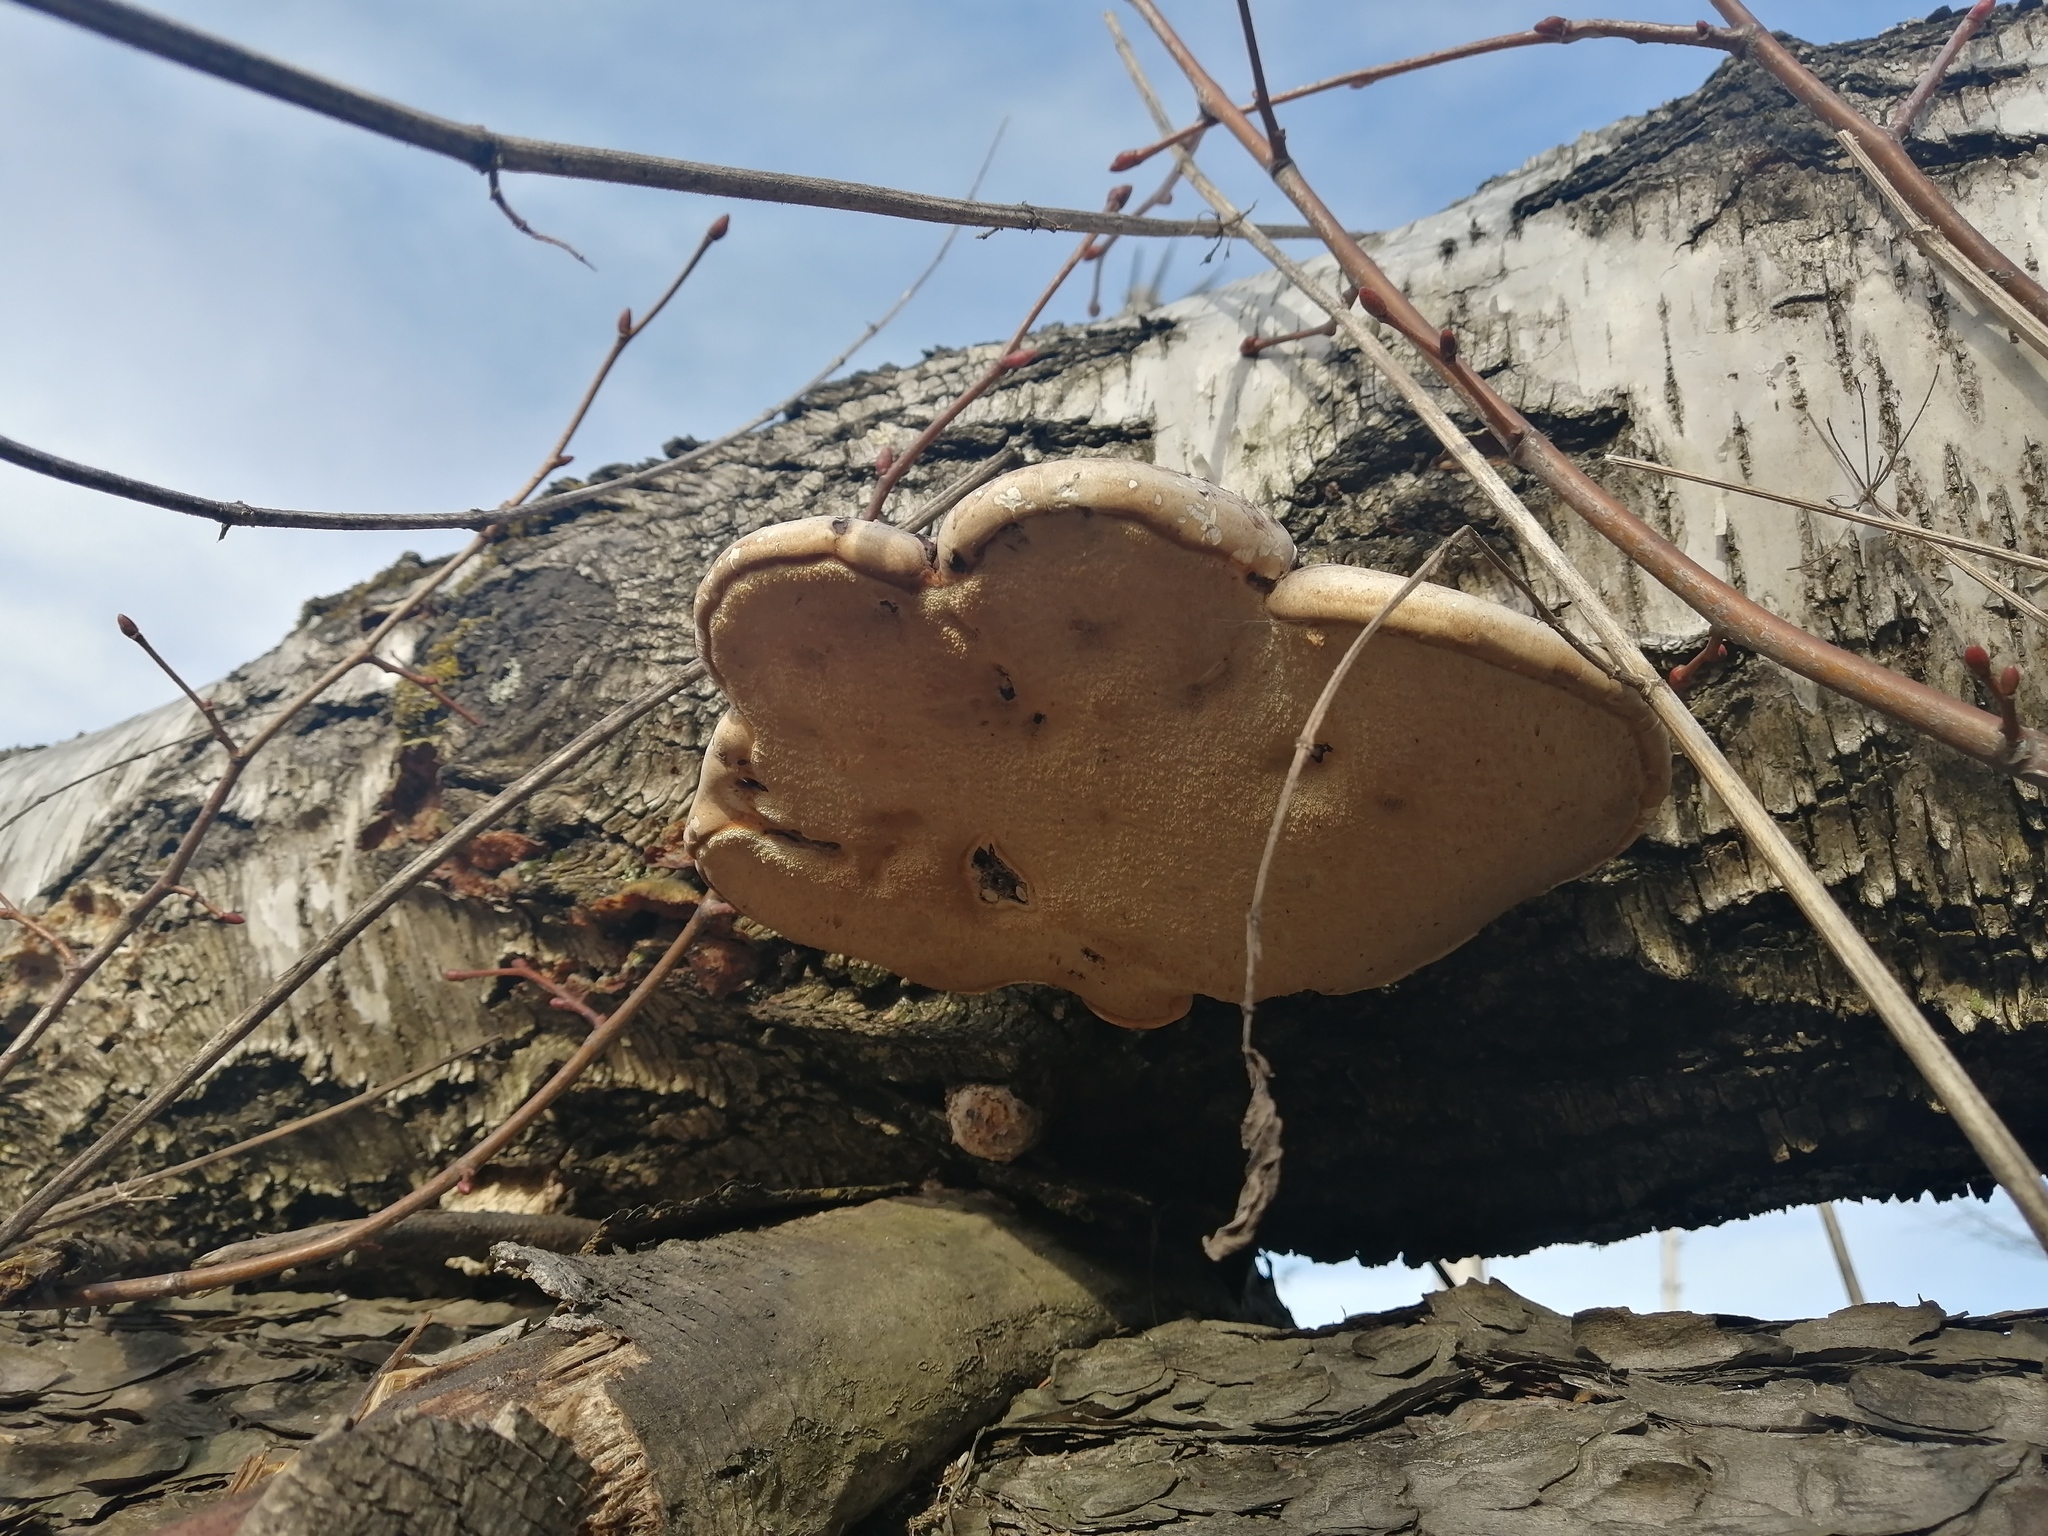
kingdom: Fungi
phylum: Basidiomycota
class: Agaricomycetes
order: Polyporales
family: Fomitopsidaceae
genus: Fomitopsis
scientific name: Fomitopsis betulina
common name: Birch polypore
